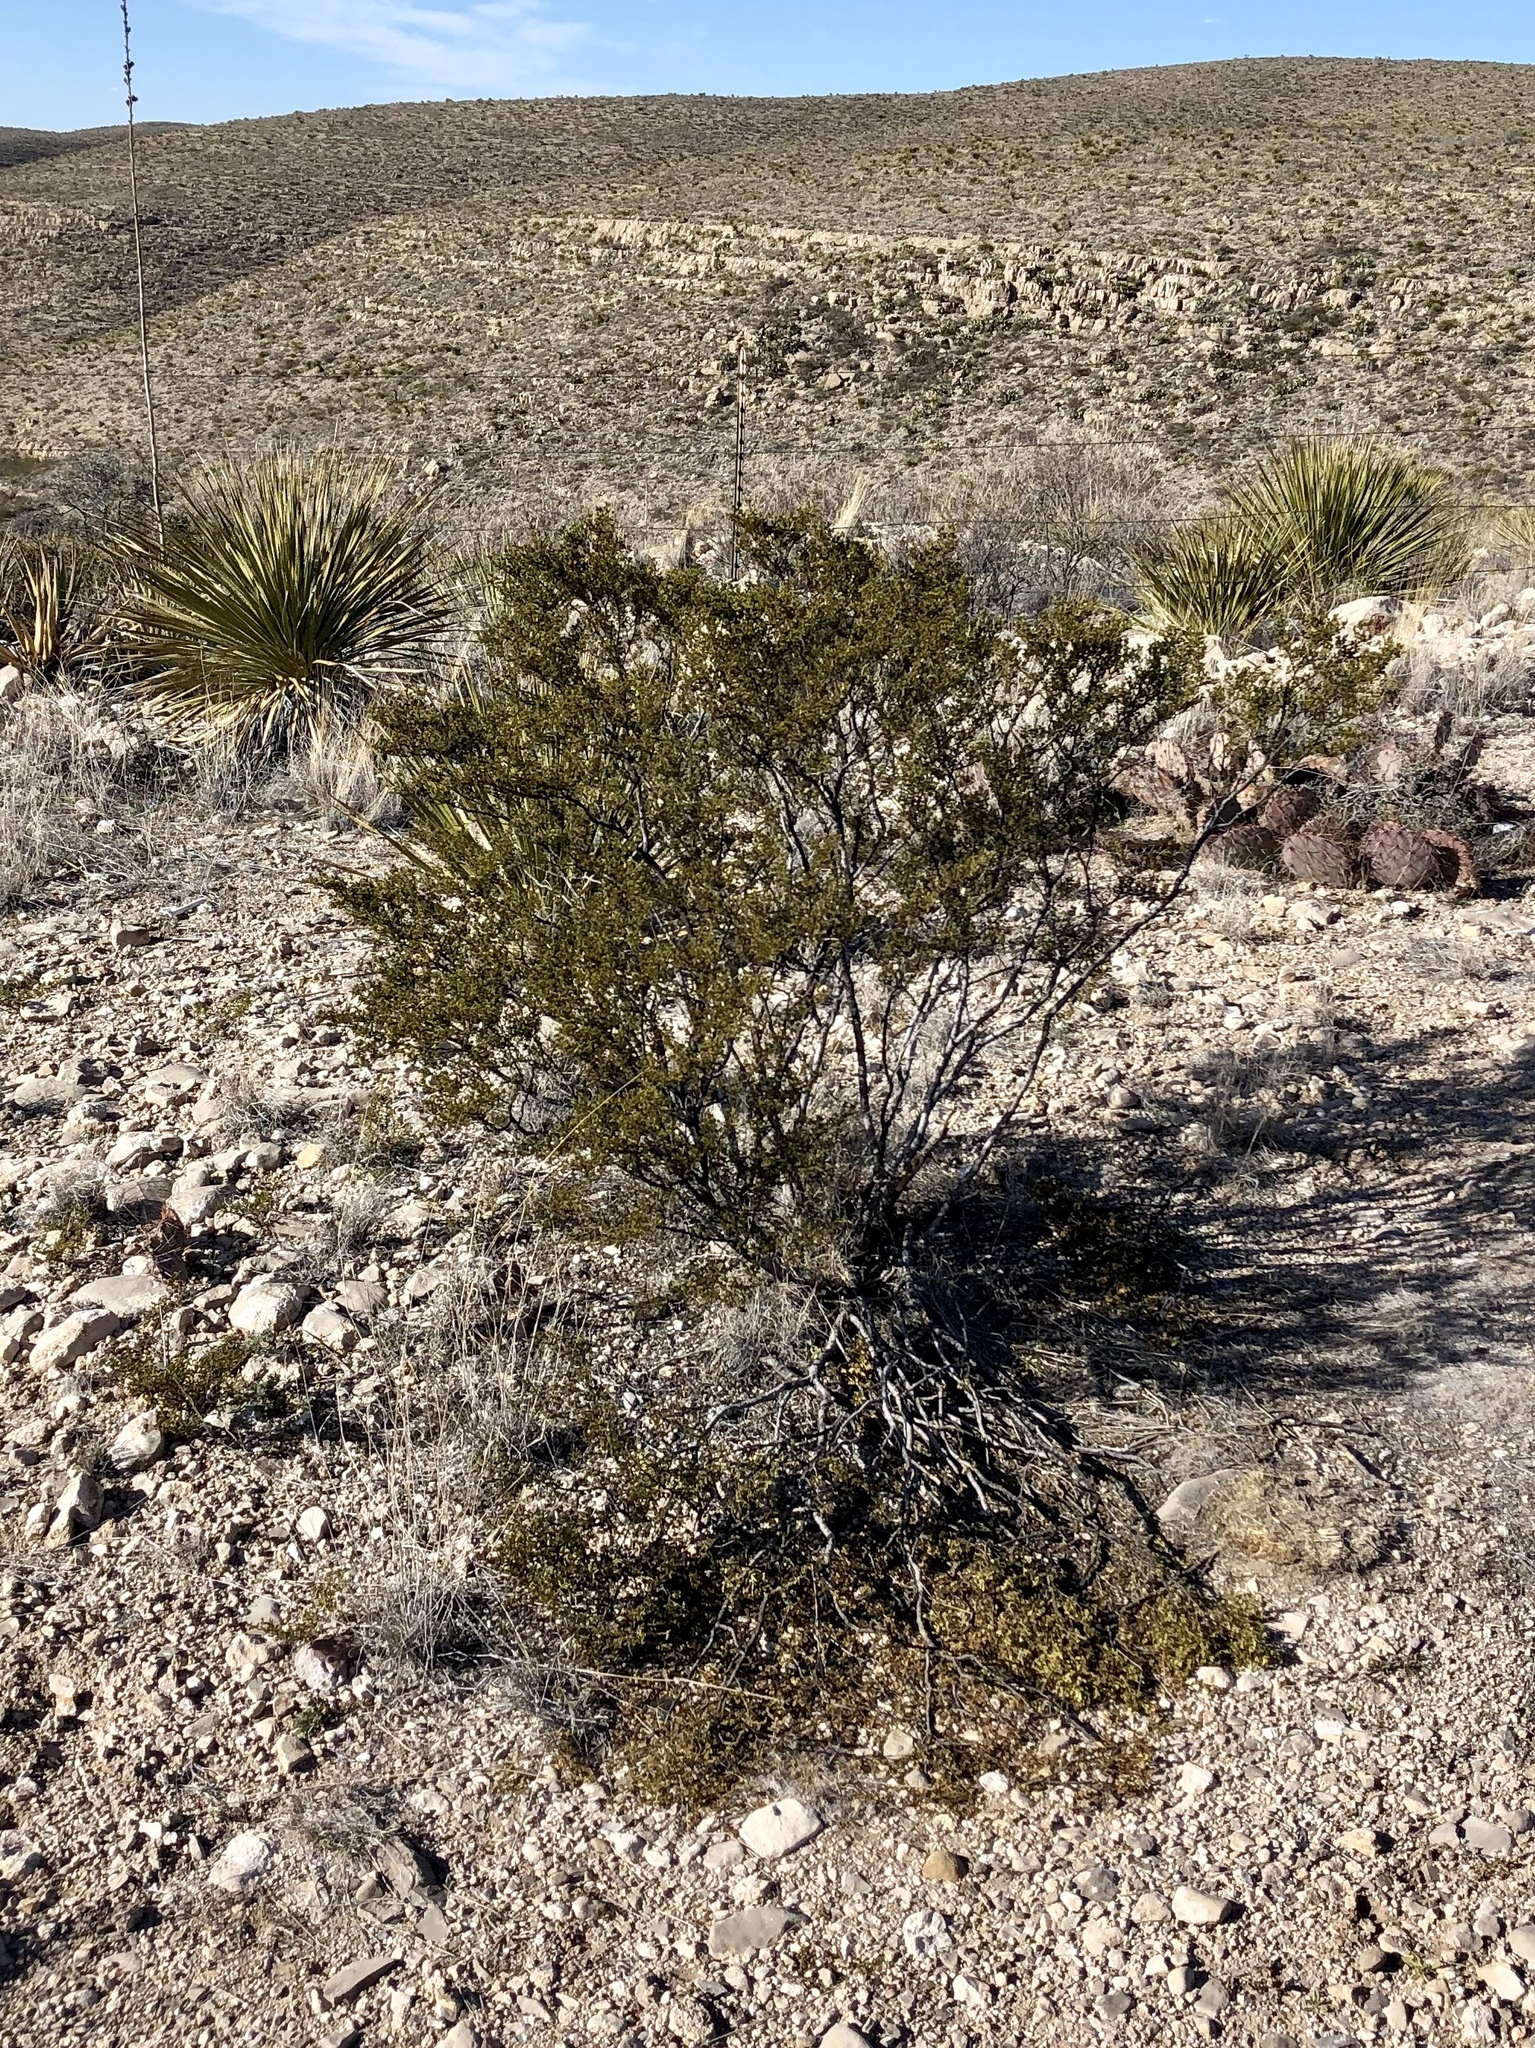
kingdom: Plantae
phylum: Tracheophyta
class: Magnoliopsida
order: Zygophyllales
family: Zygophyllaceae
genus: Larrea
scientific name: Larrea tridentata
